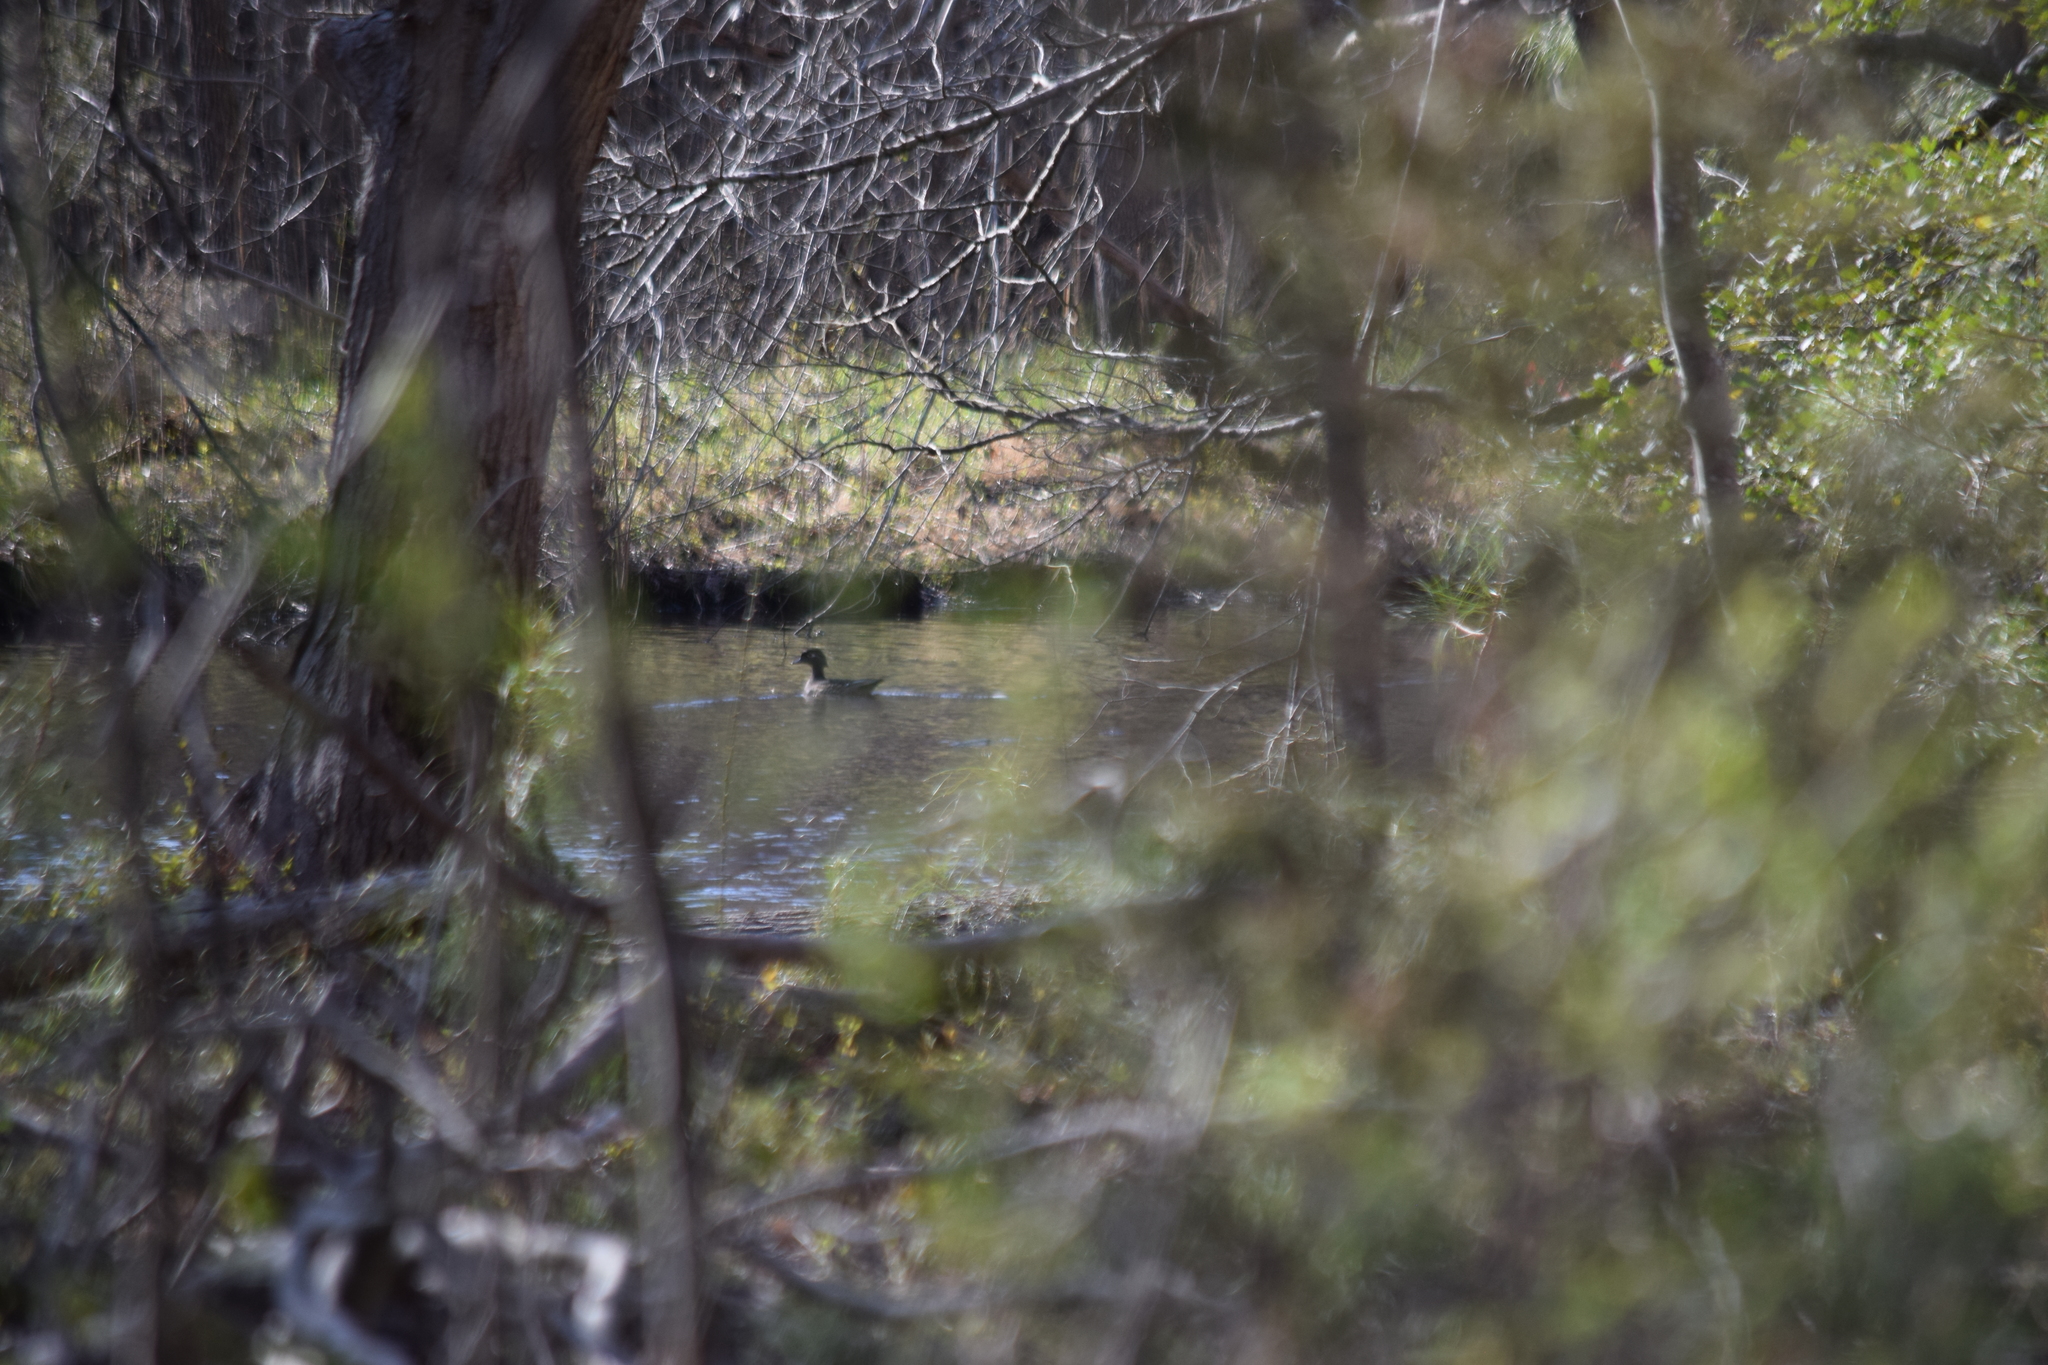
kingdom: Animalia
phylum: Chordata
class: Aves
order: Anseriformes
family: Anatidae
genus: Aix
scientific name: Aix sponsa
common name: Wood duck
